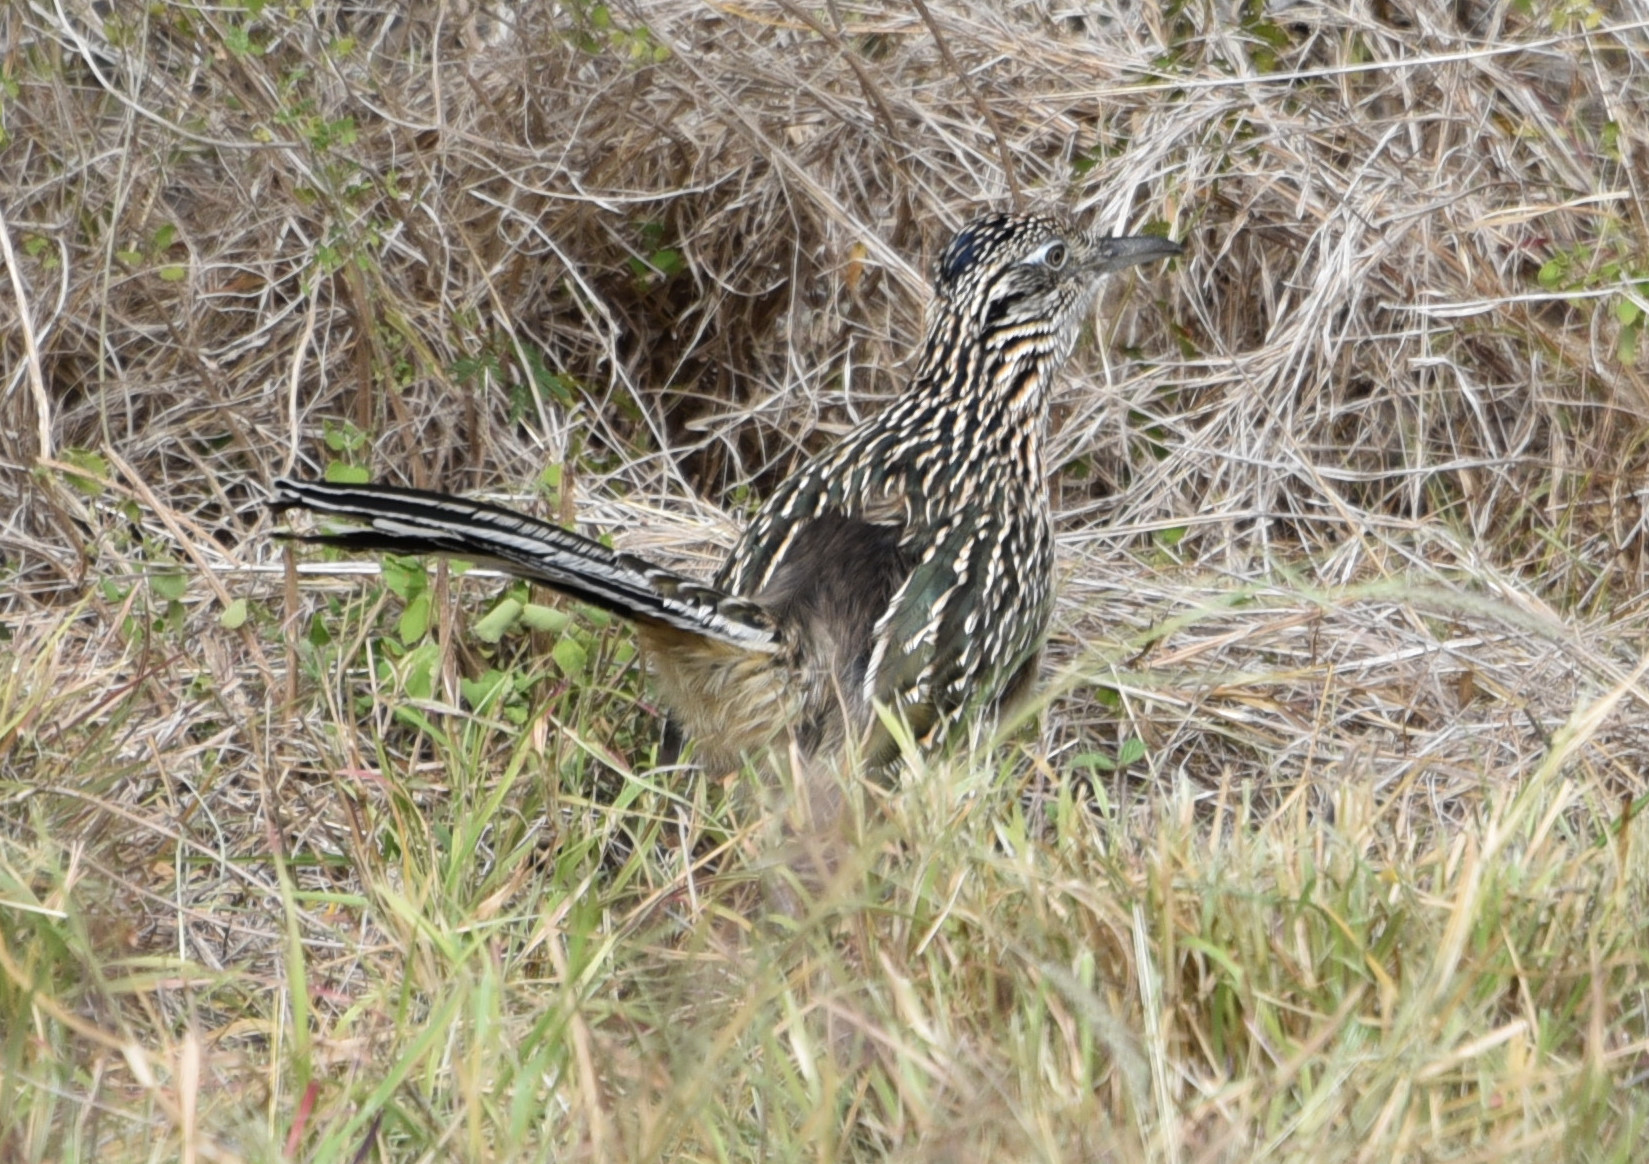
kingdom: Animalia
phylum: Chordata
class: Aves
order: Cuculiformes
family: Cuculidae
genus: Geococcyx
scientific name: Geococcyx californianus
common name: Greater roadrunner
